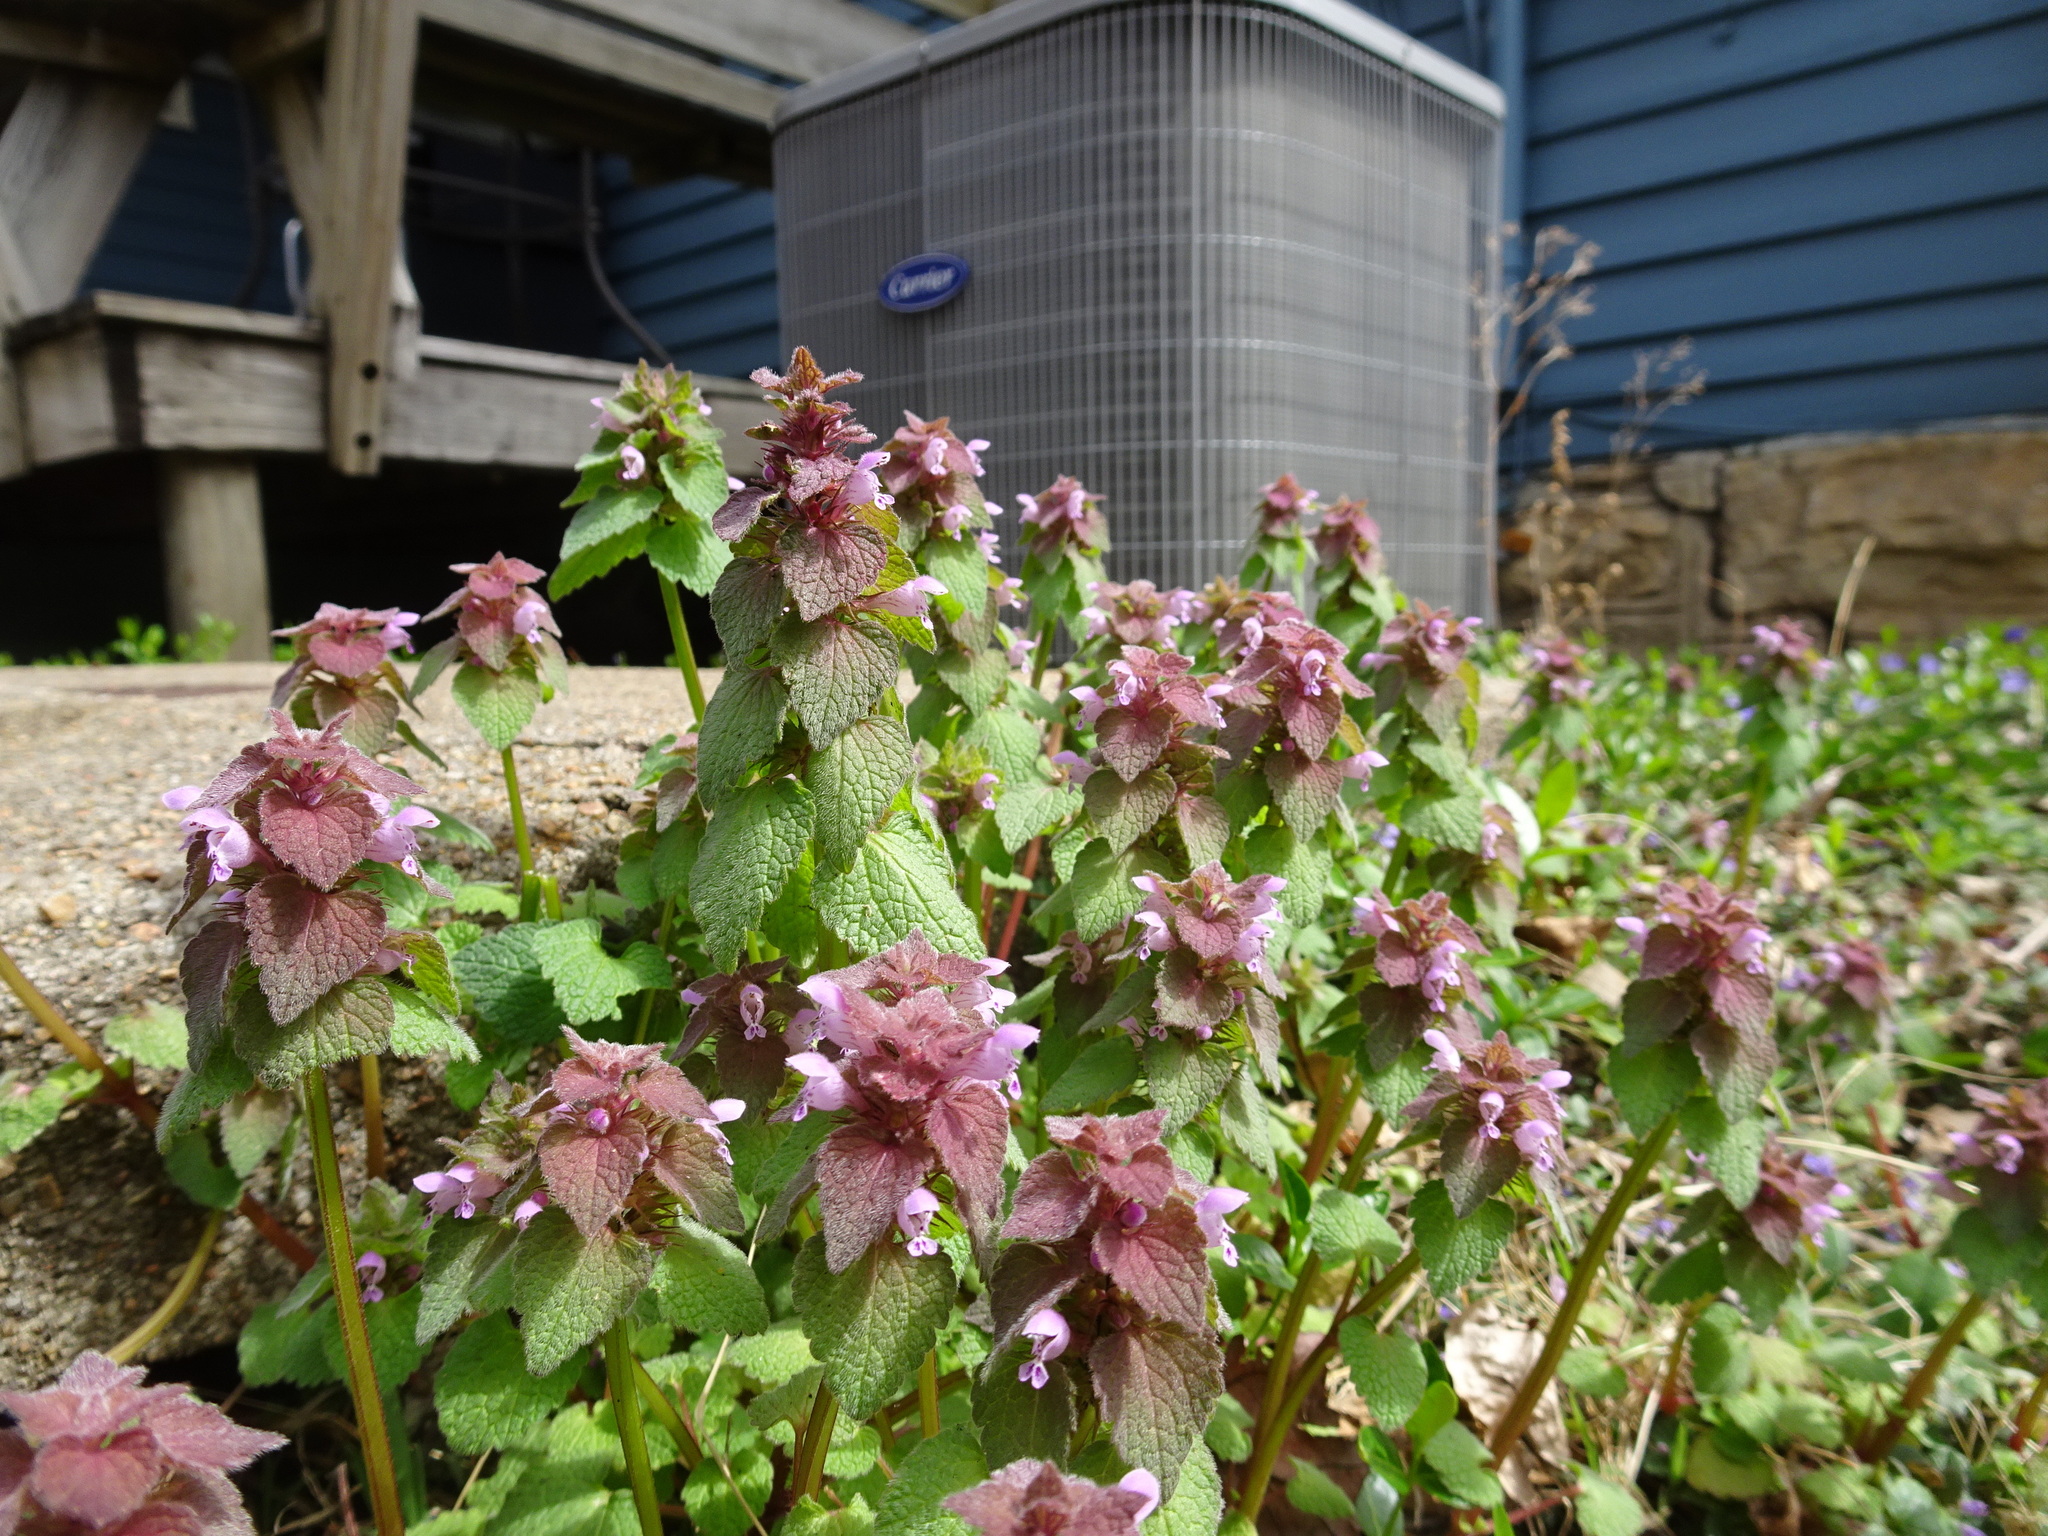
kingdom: Plantae
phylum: Tracheophyta
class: Magnoliopsida
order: Lamiales
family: Lamiaceae
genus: Lamium
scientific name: Lamium purpureum
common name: Red dead-nettle
